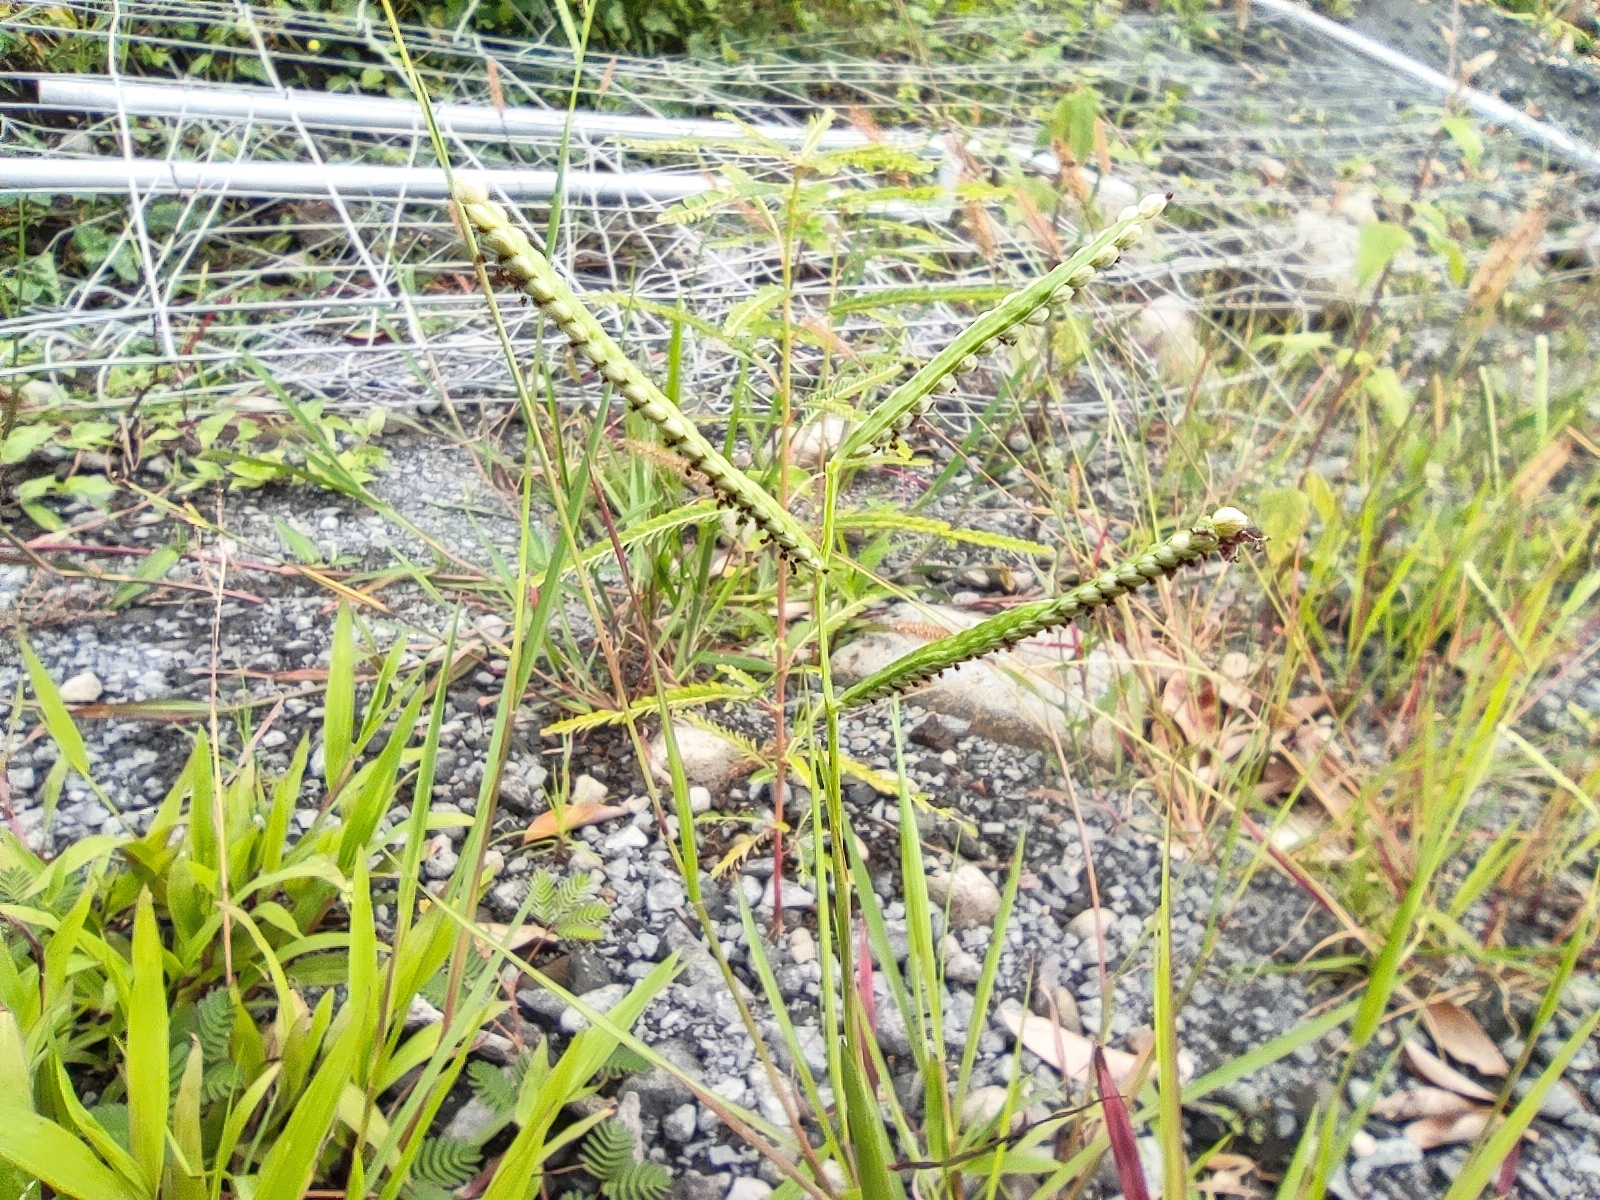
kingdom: Plantae
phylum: Tracheophyta
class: Liliopsida
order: Poales
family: Poaceae
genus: Paspalum
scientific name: Paspalum scrobiculatum
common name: Kodo millet
